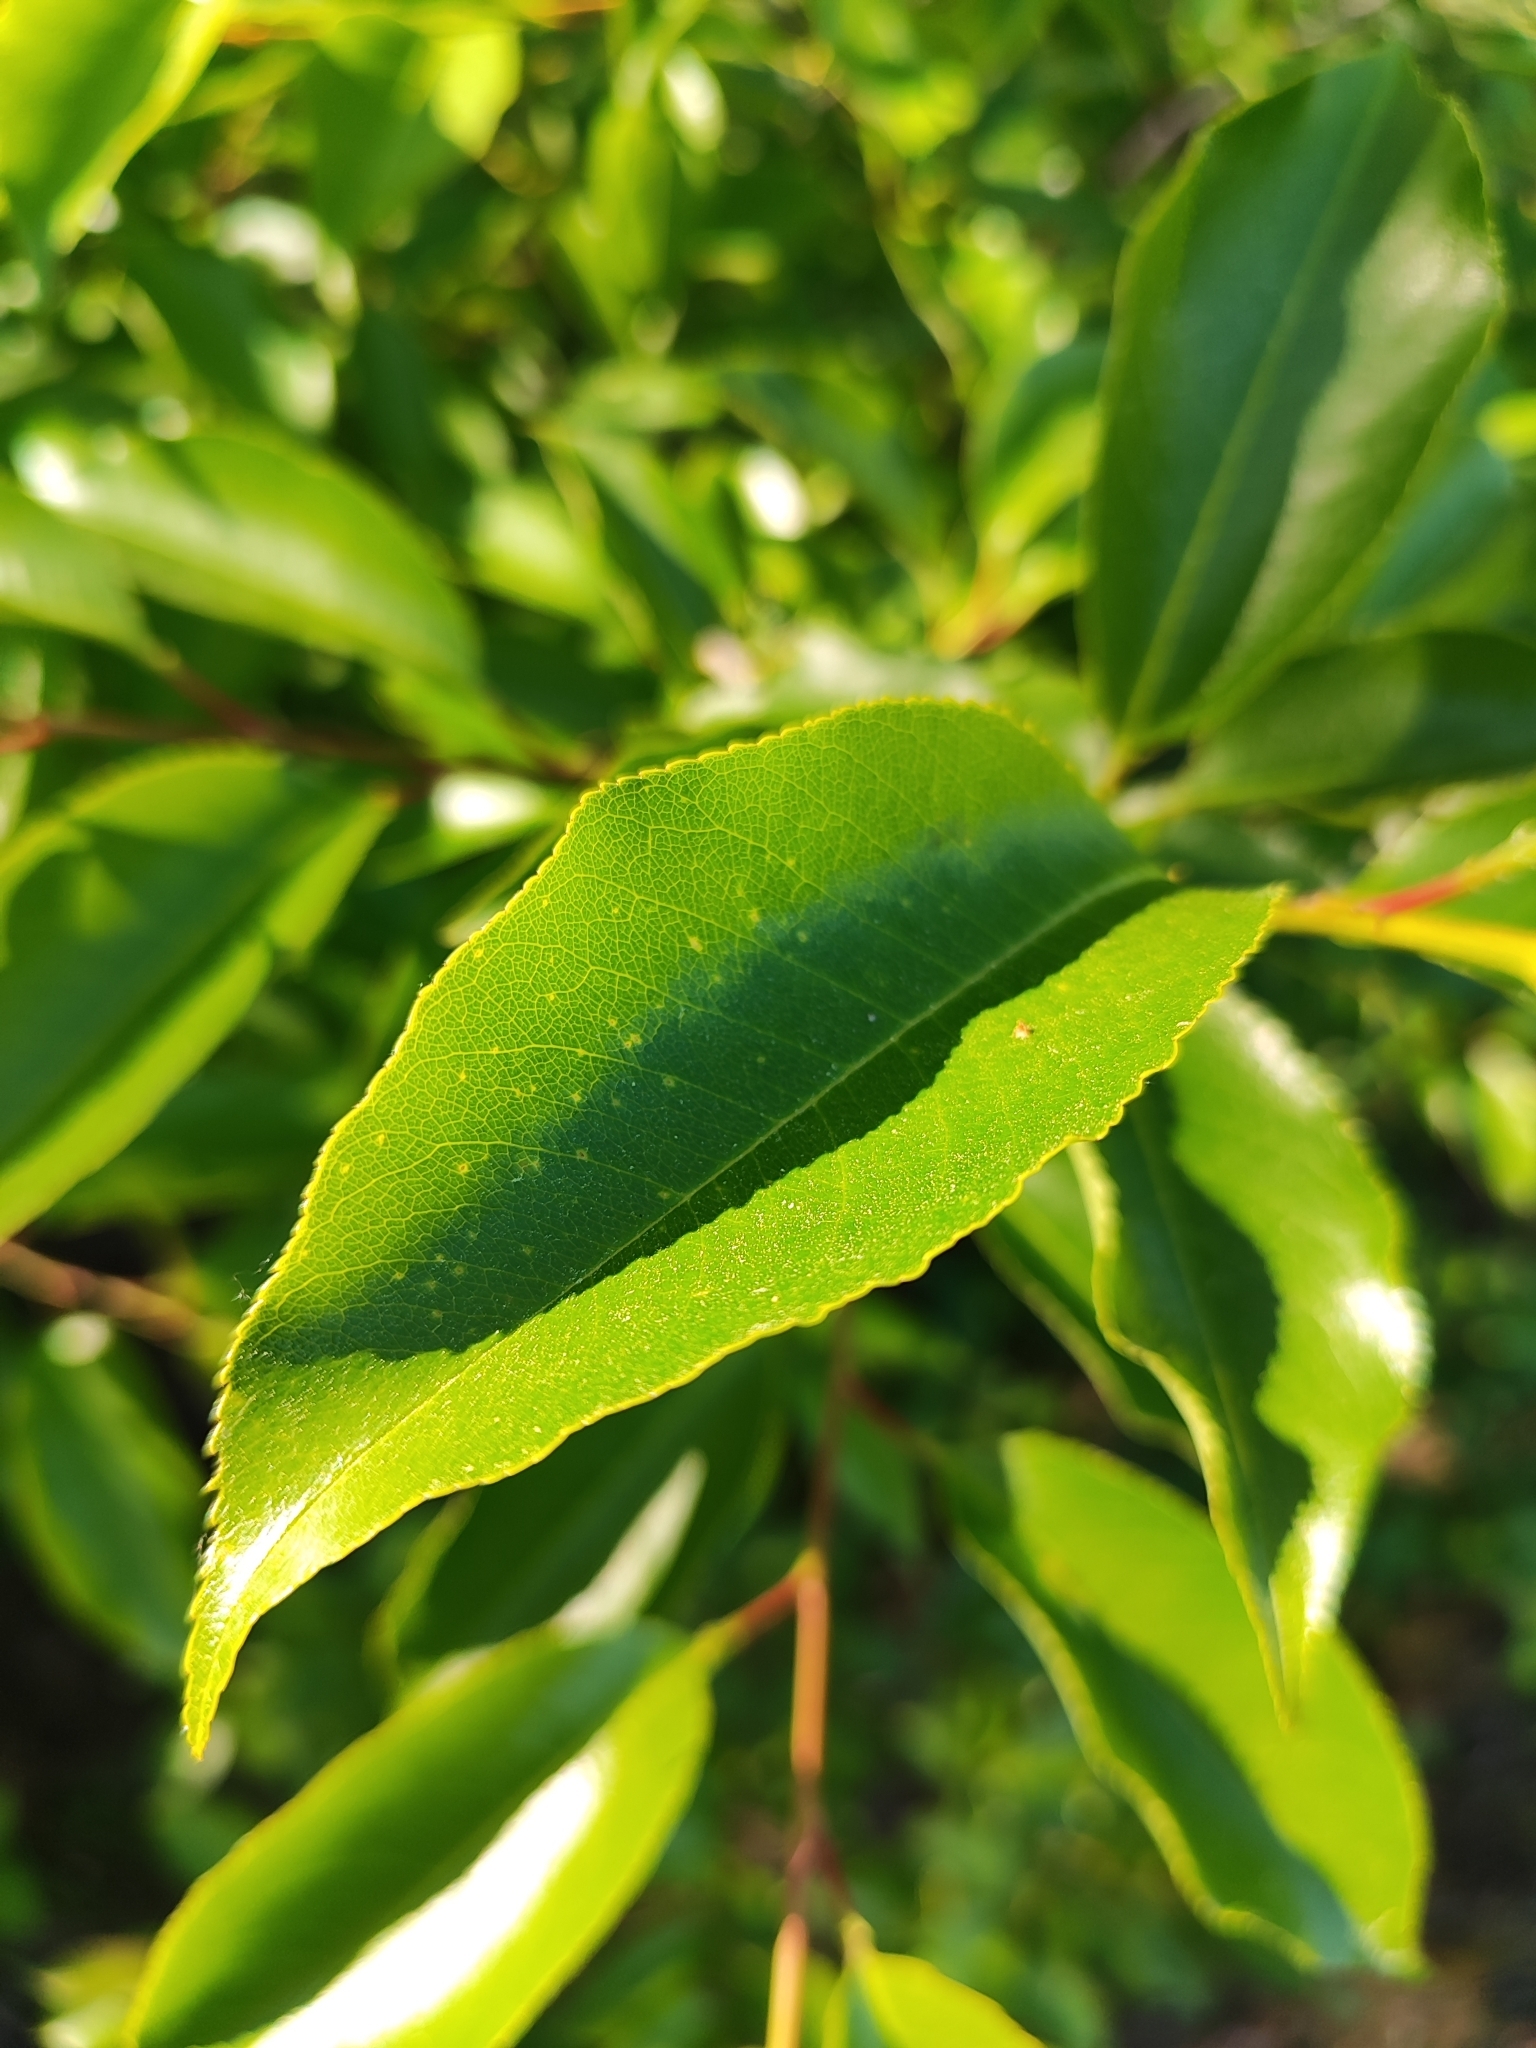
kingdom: Plantae
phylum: Tracheophyta
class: Magnoliopsida
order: Rosales
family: Rosaceae
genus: Prunus
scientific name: Prunus serotina
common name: Black cherry
